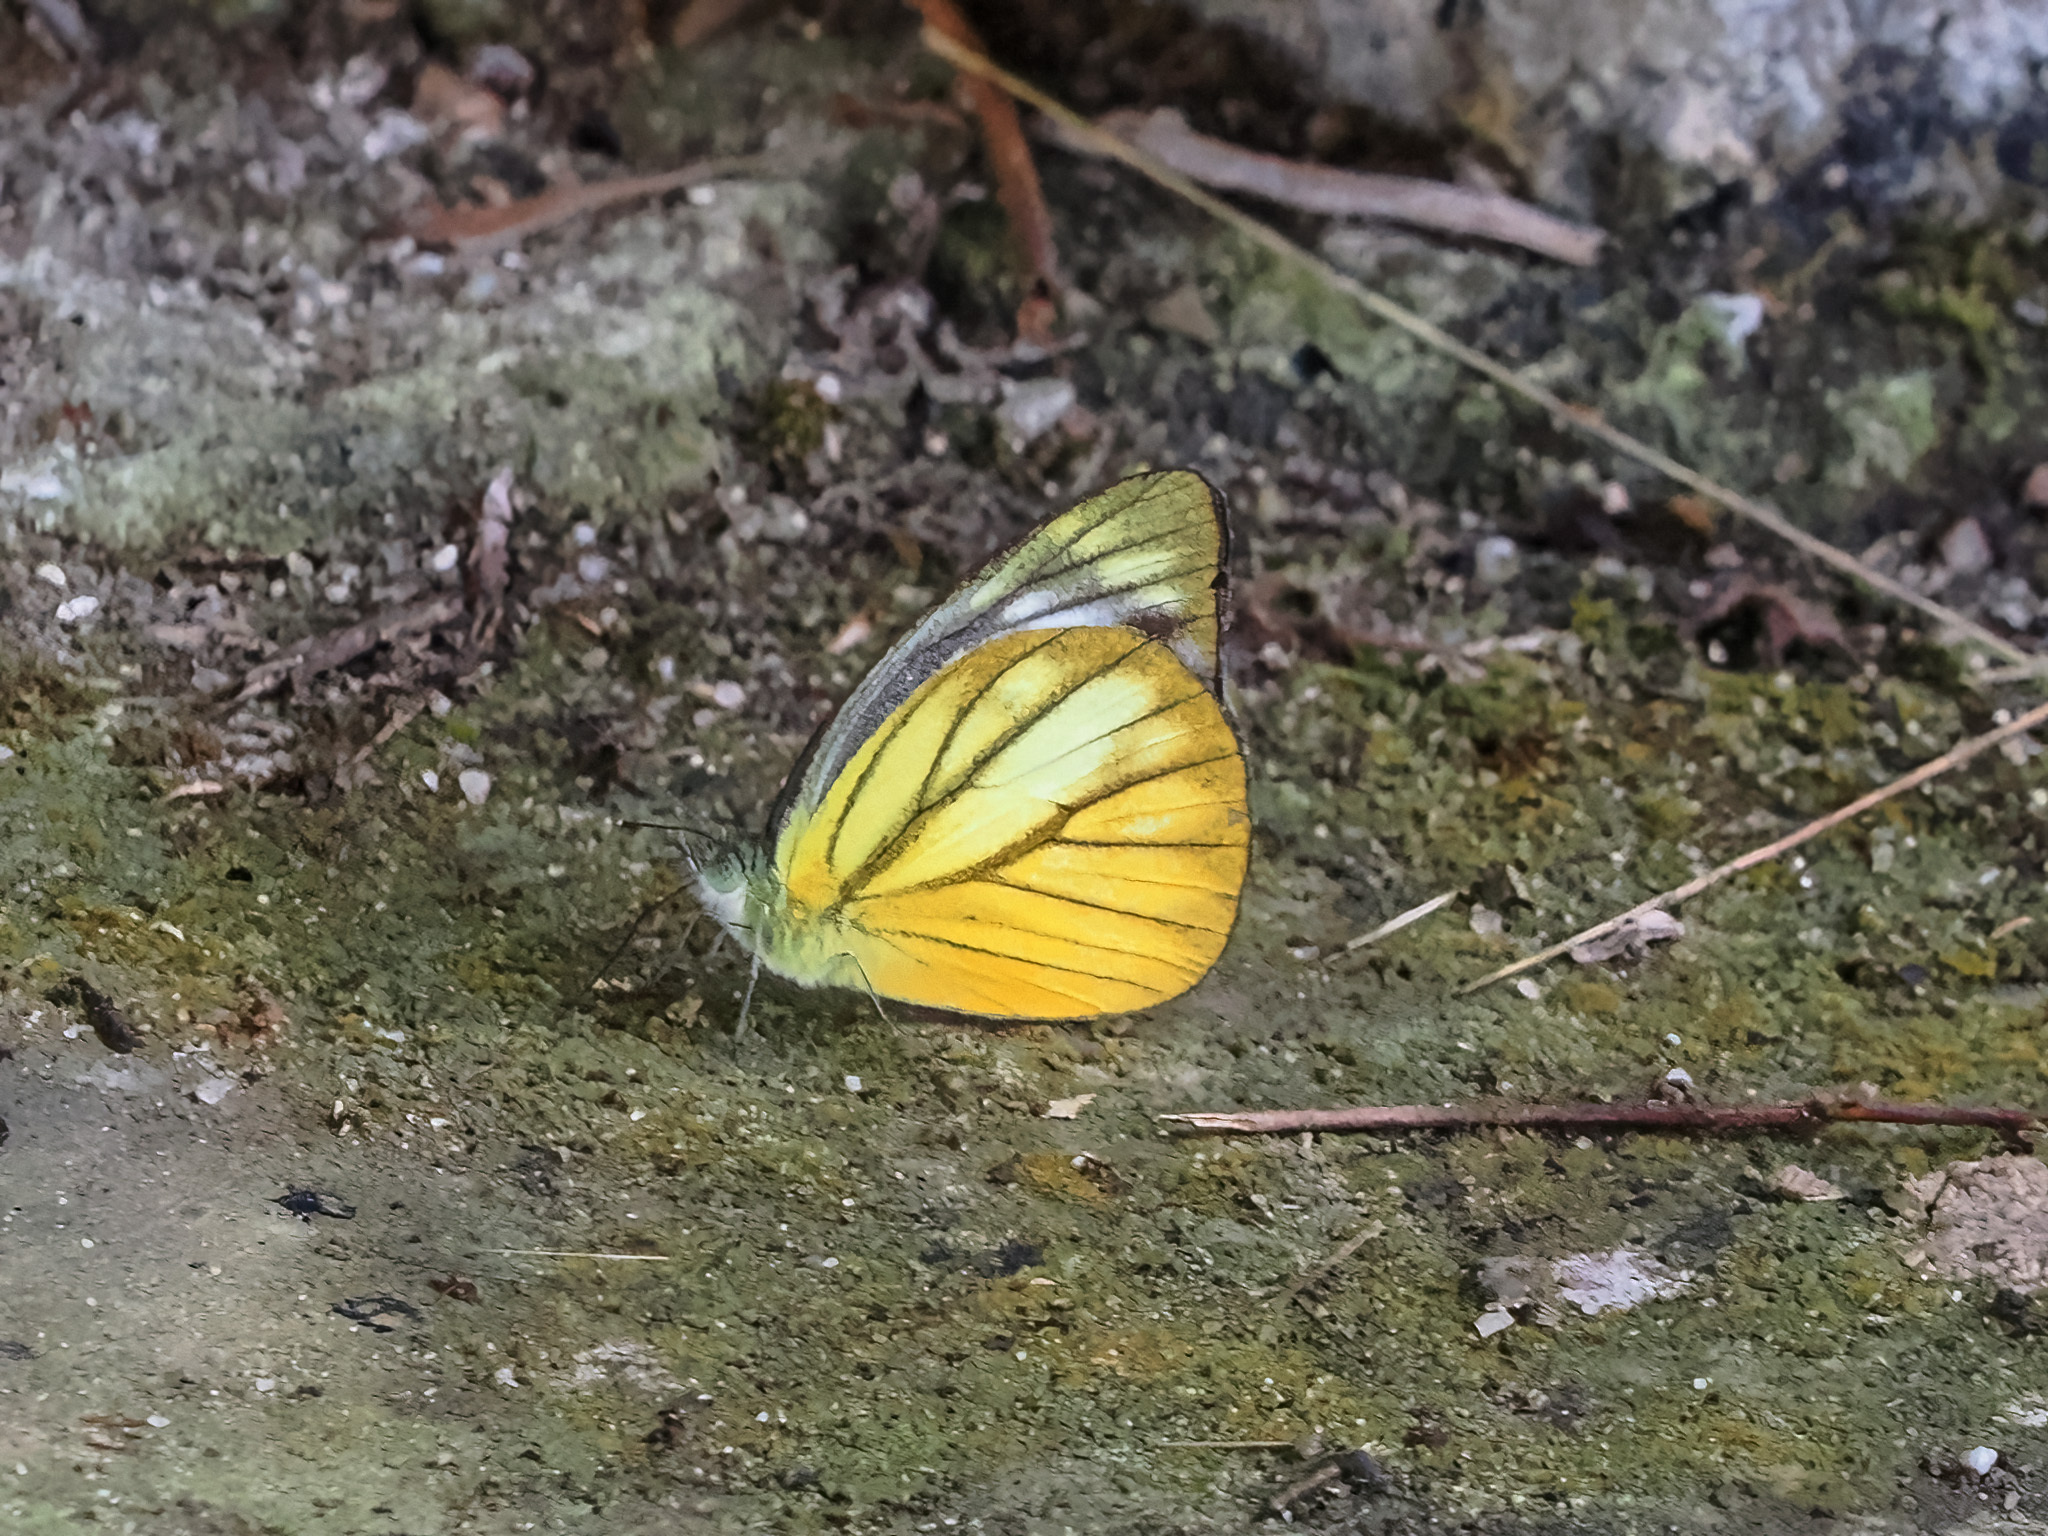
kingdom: Animalia
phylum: Arthropoda
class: Insecta
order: Lepidoptera
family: Pieridae
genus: Cepora
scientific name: Cepora nadina
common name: Lesser gull
